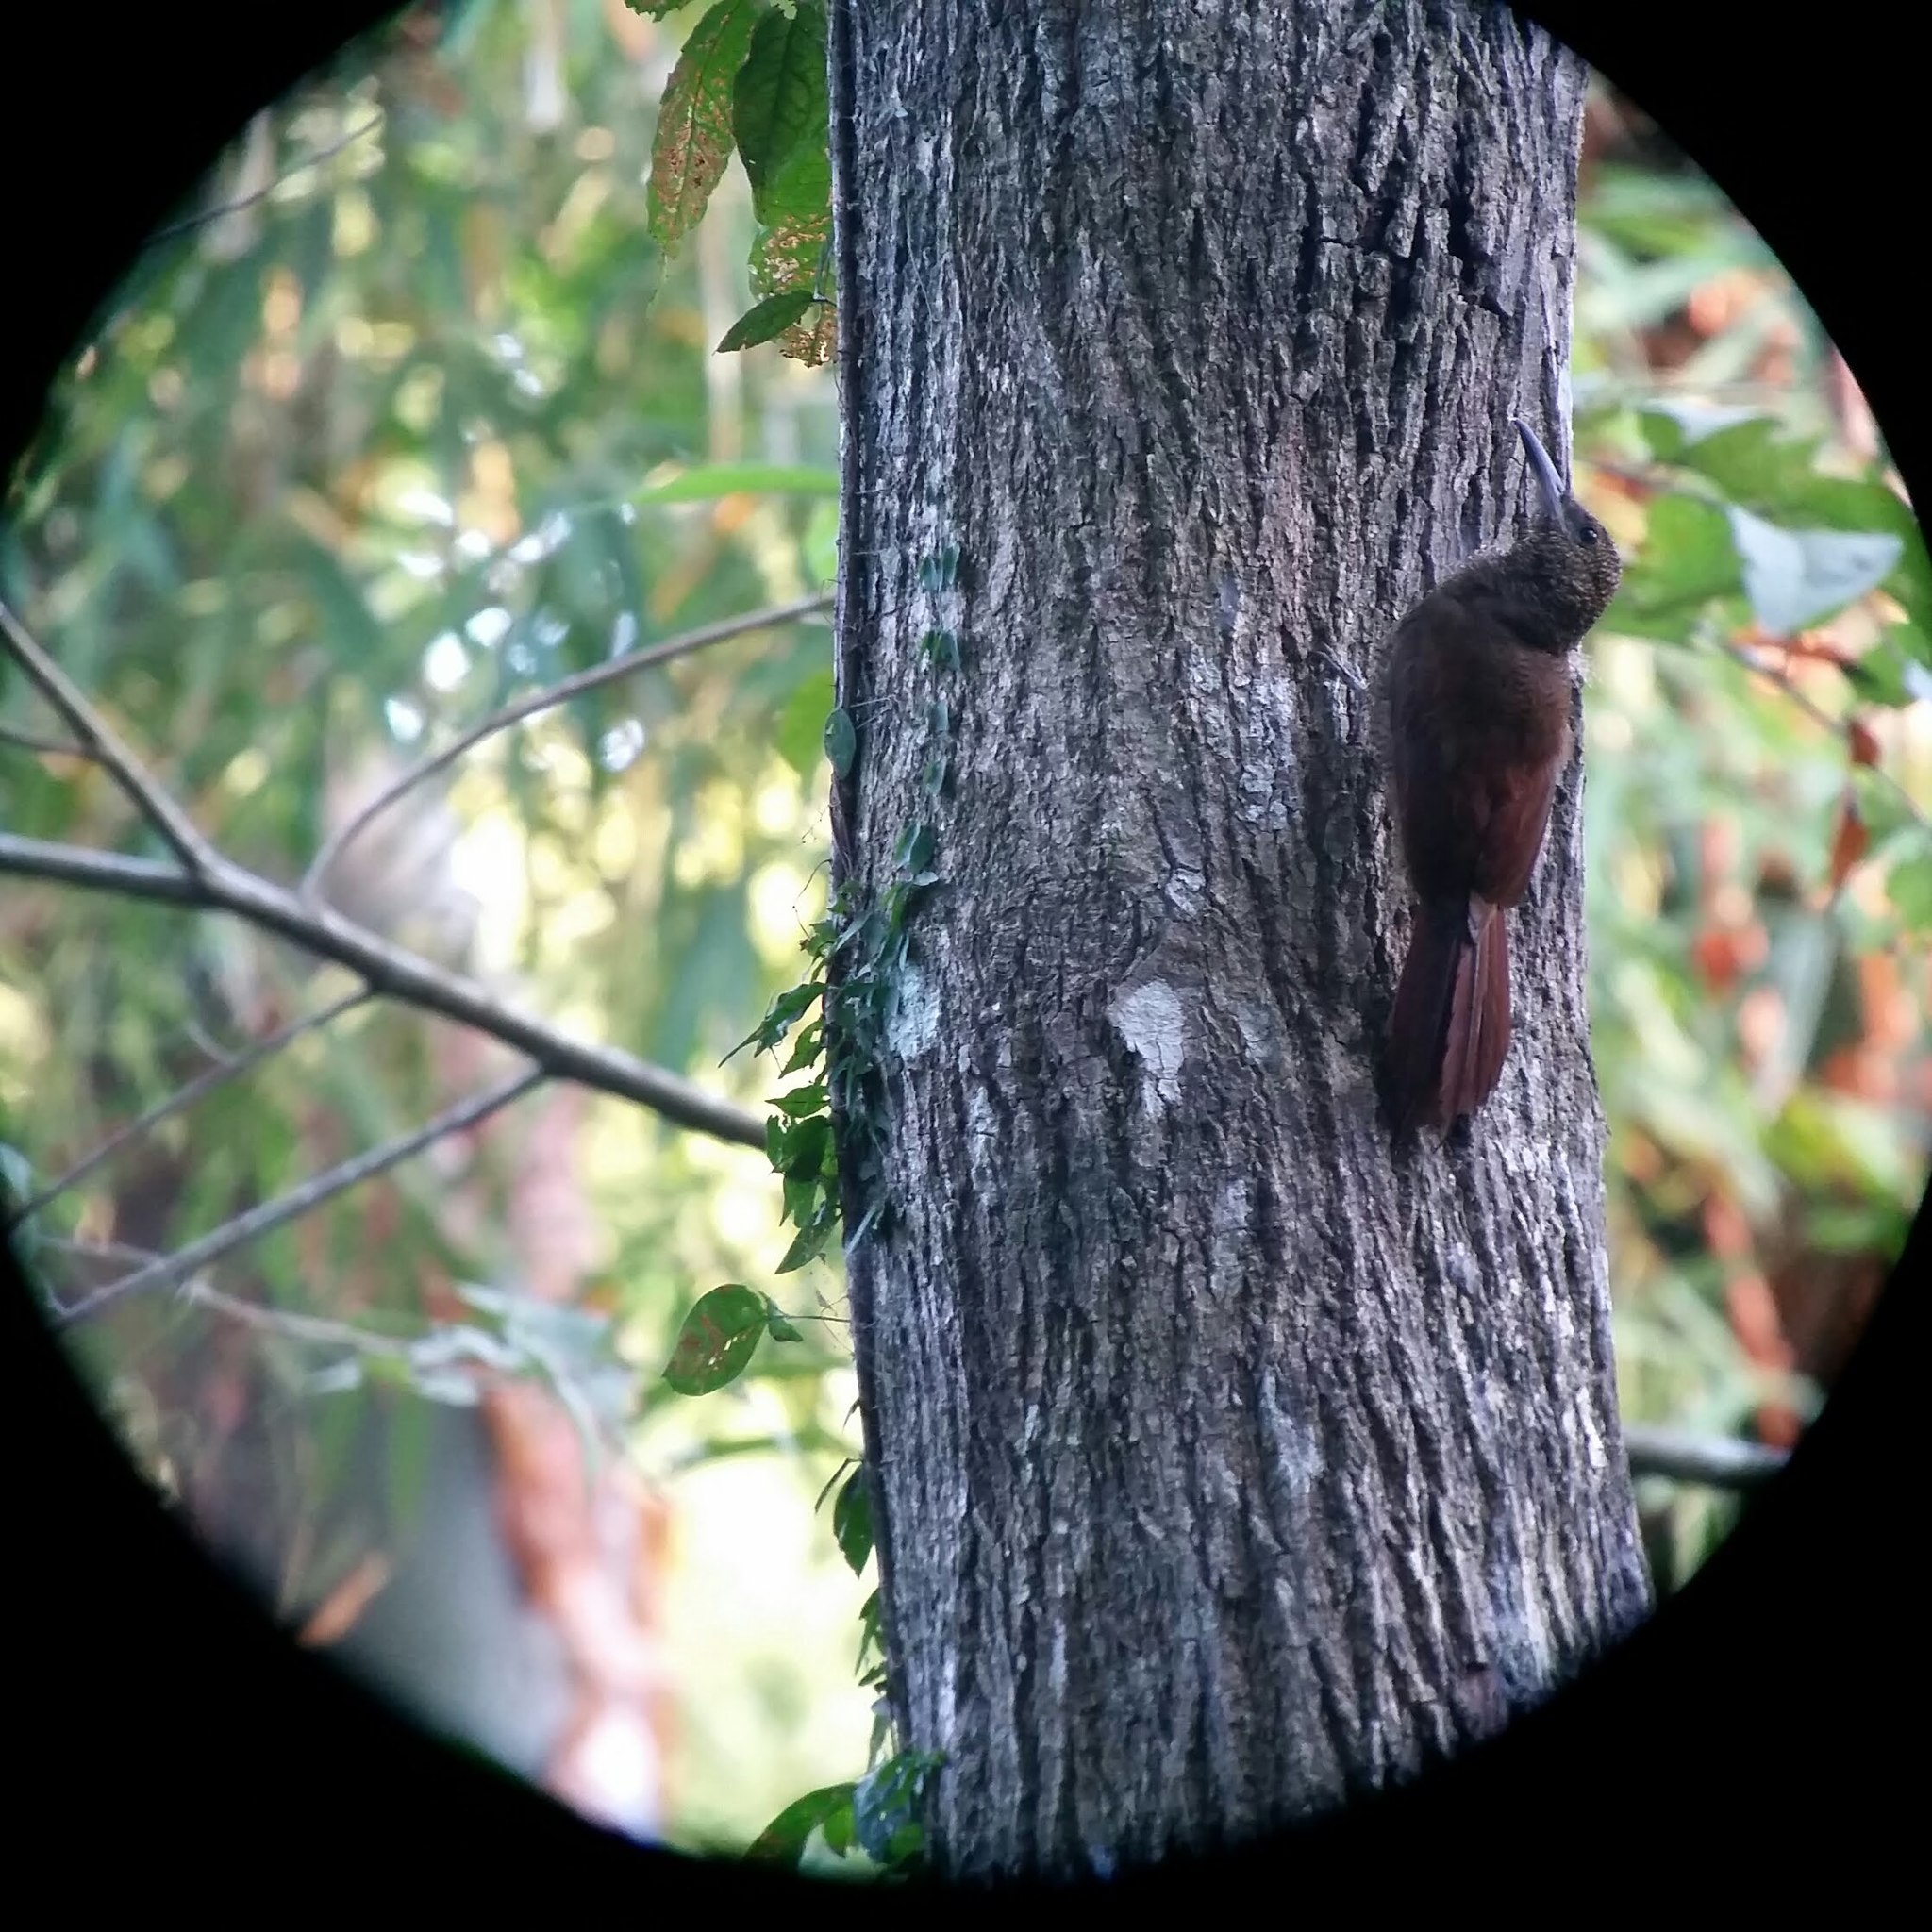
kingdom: Animalia
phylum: Chordata
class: Aves
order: Passeriformes
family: Furnariidae
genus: Dendrocolaptes
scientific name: Dendrocolaptes sanctithomae
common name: Northern barred-woodcreeper
